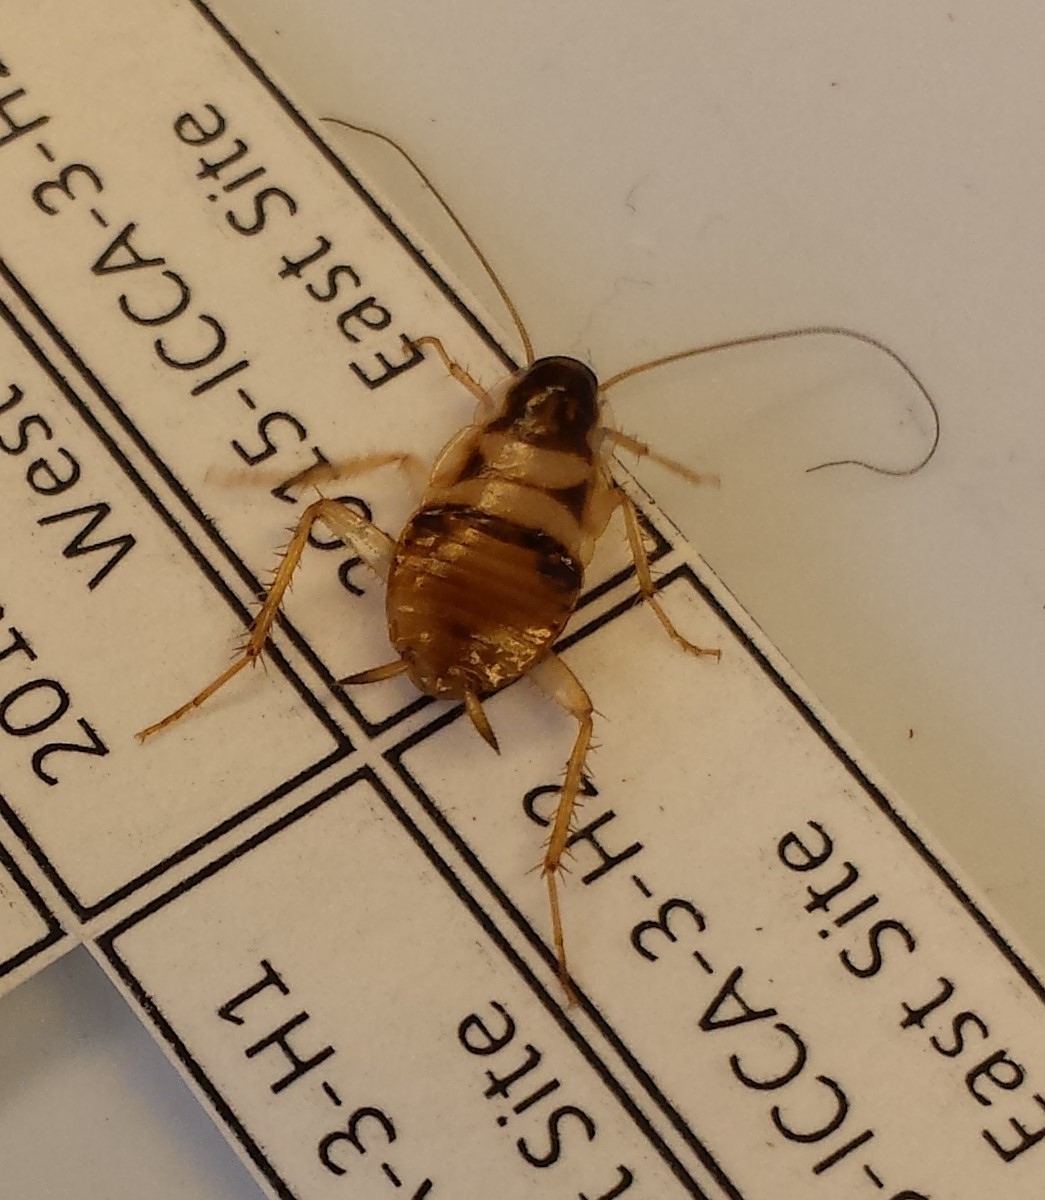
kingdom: Animalia
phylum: Arthropoda
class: Insecta
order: Blattodea
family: Ectobiidae
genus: Supella
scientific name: Supella longipalpa
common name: Brown-banded cockroach
